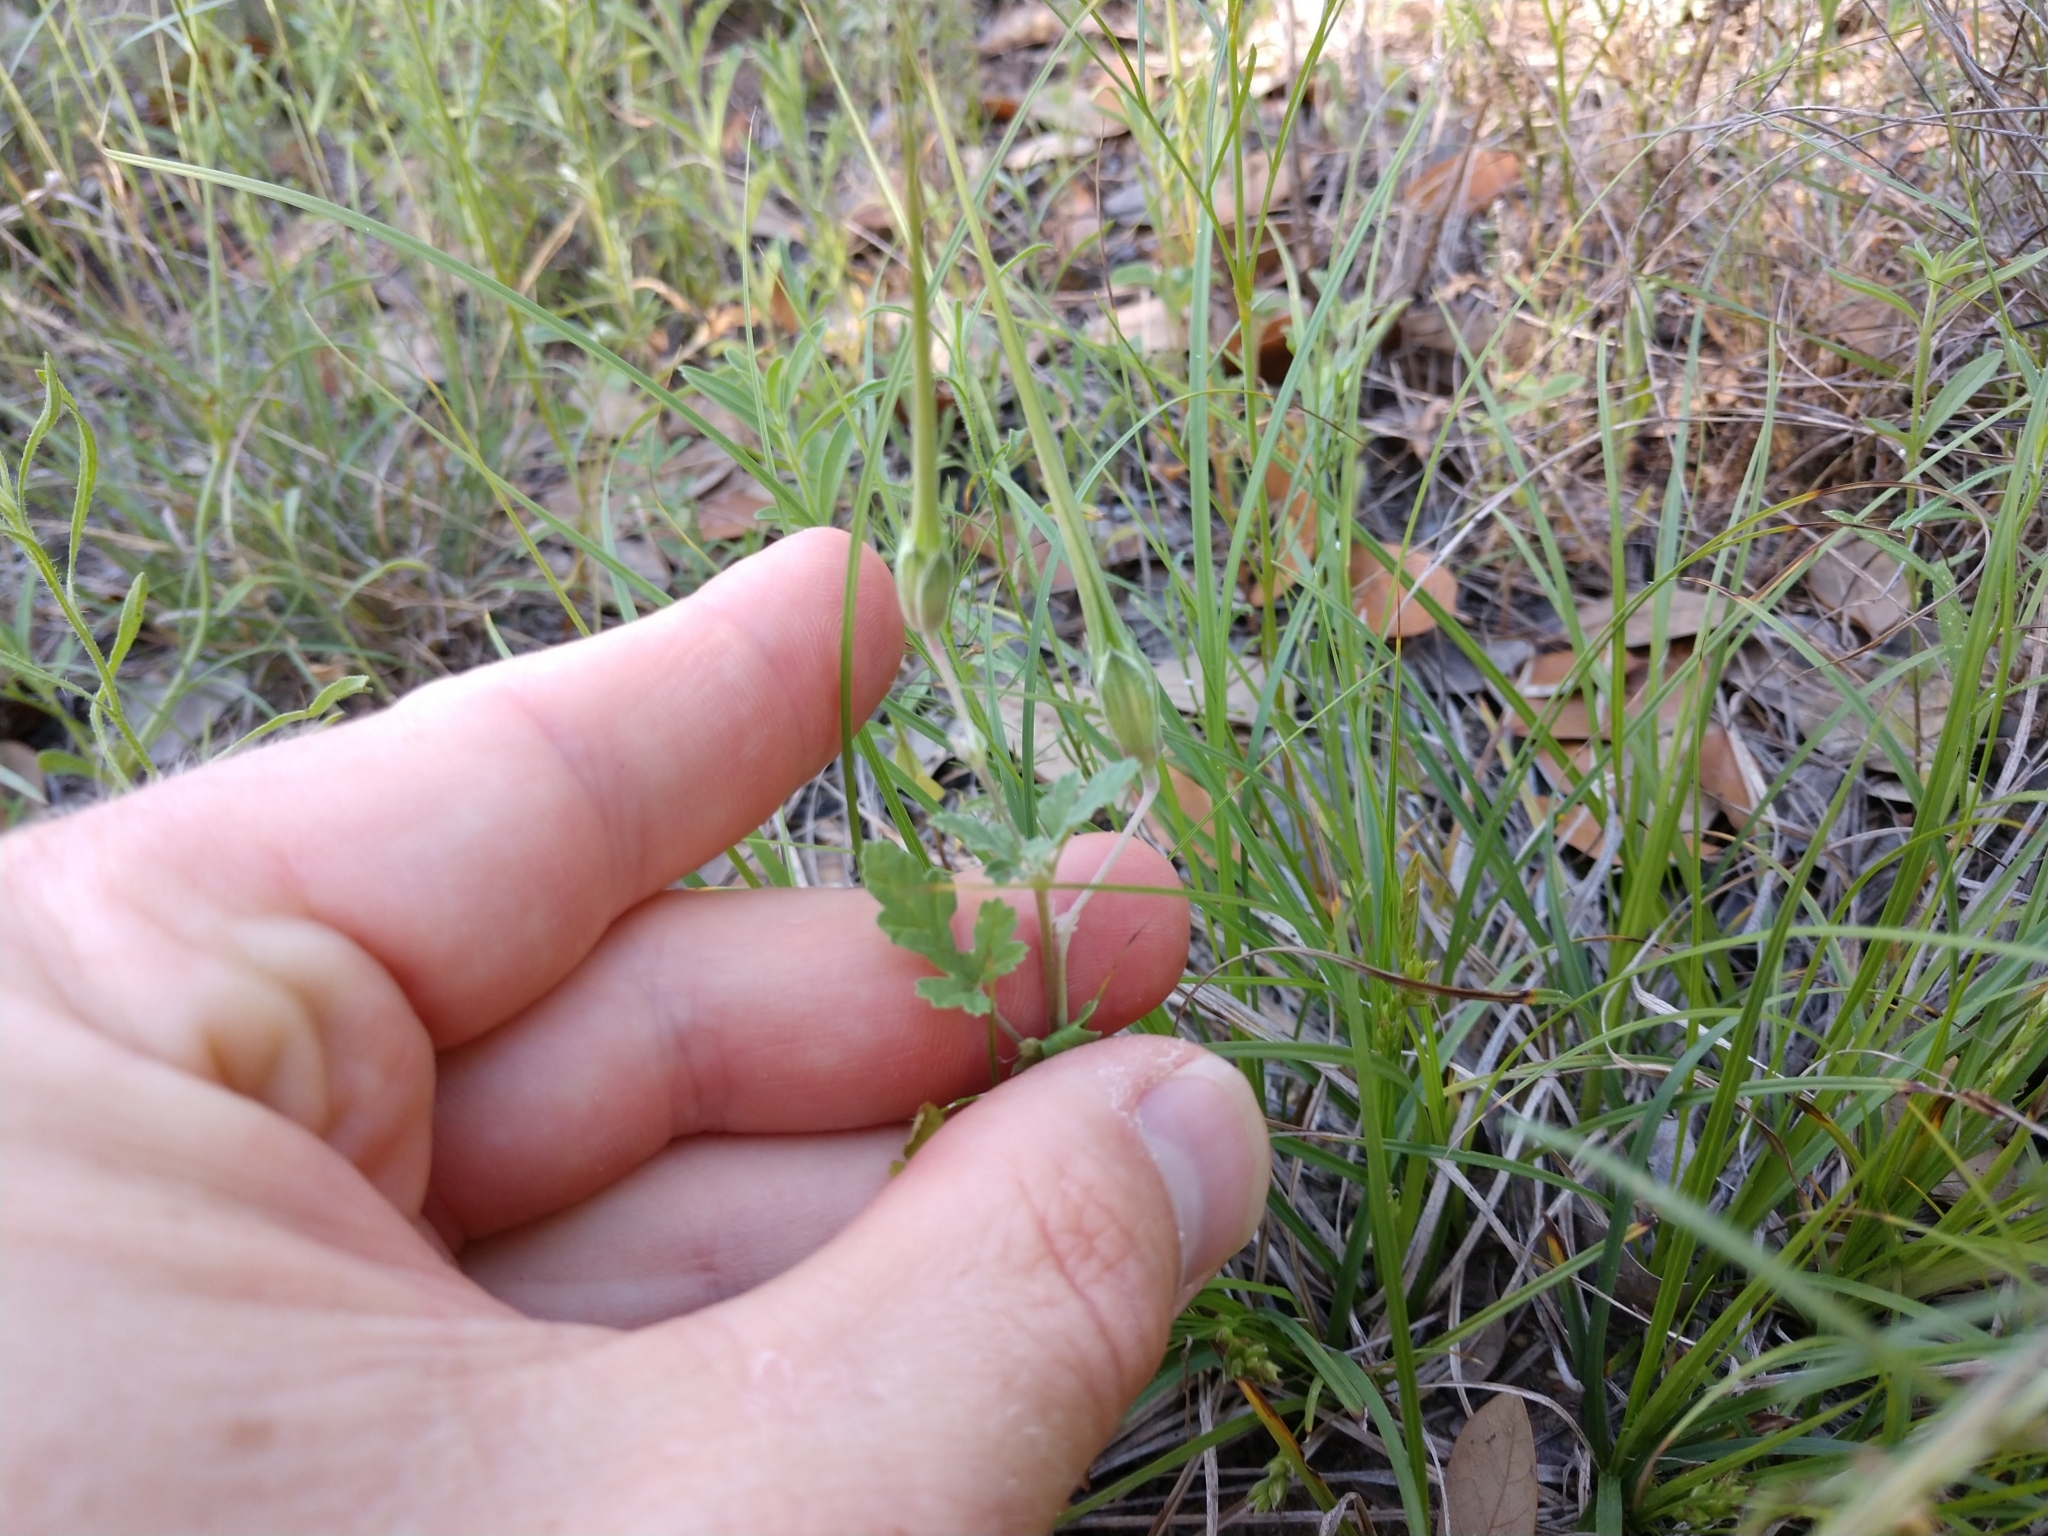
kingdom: Plantae
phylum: Tracheophyta
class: Magnoliopsida
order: Geraniales
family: Geraniaceae
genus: Erodium
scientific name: Erodium texanum
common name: Texas stork's-bill
